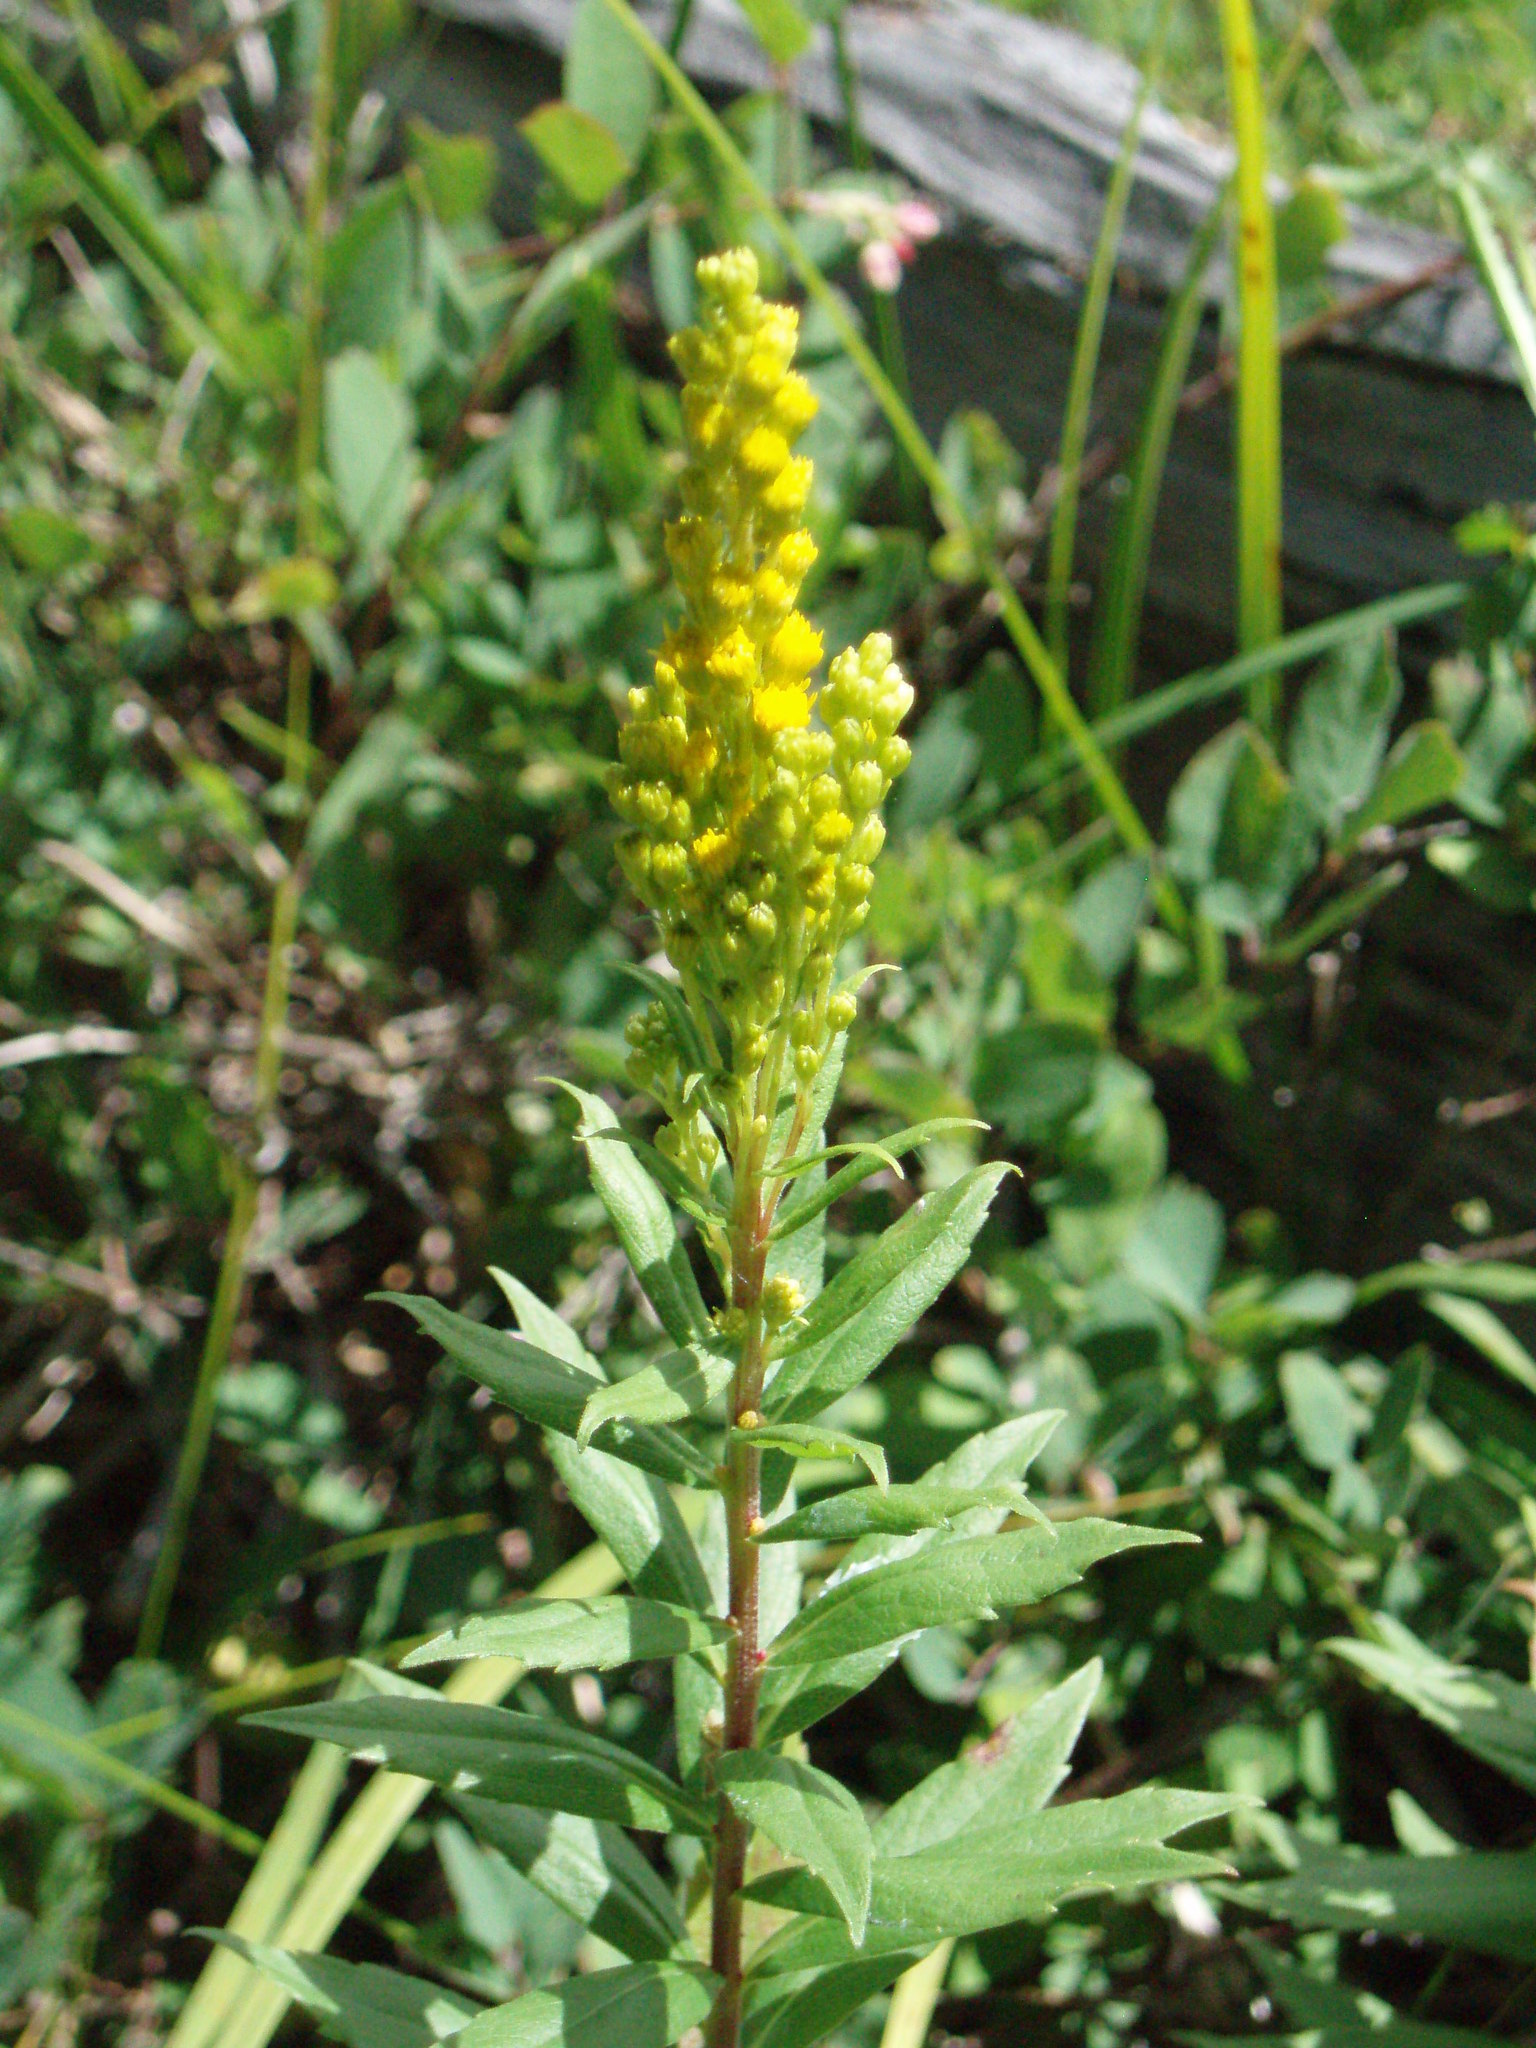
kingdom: Plantae
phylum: Tracheophyta
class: Magnoliopsida
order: Asterales
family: Asteraceae
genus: Solidago
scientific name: Solidago lepida
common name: Western canada goldenrod
